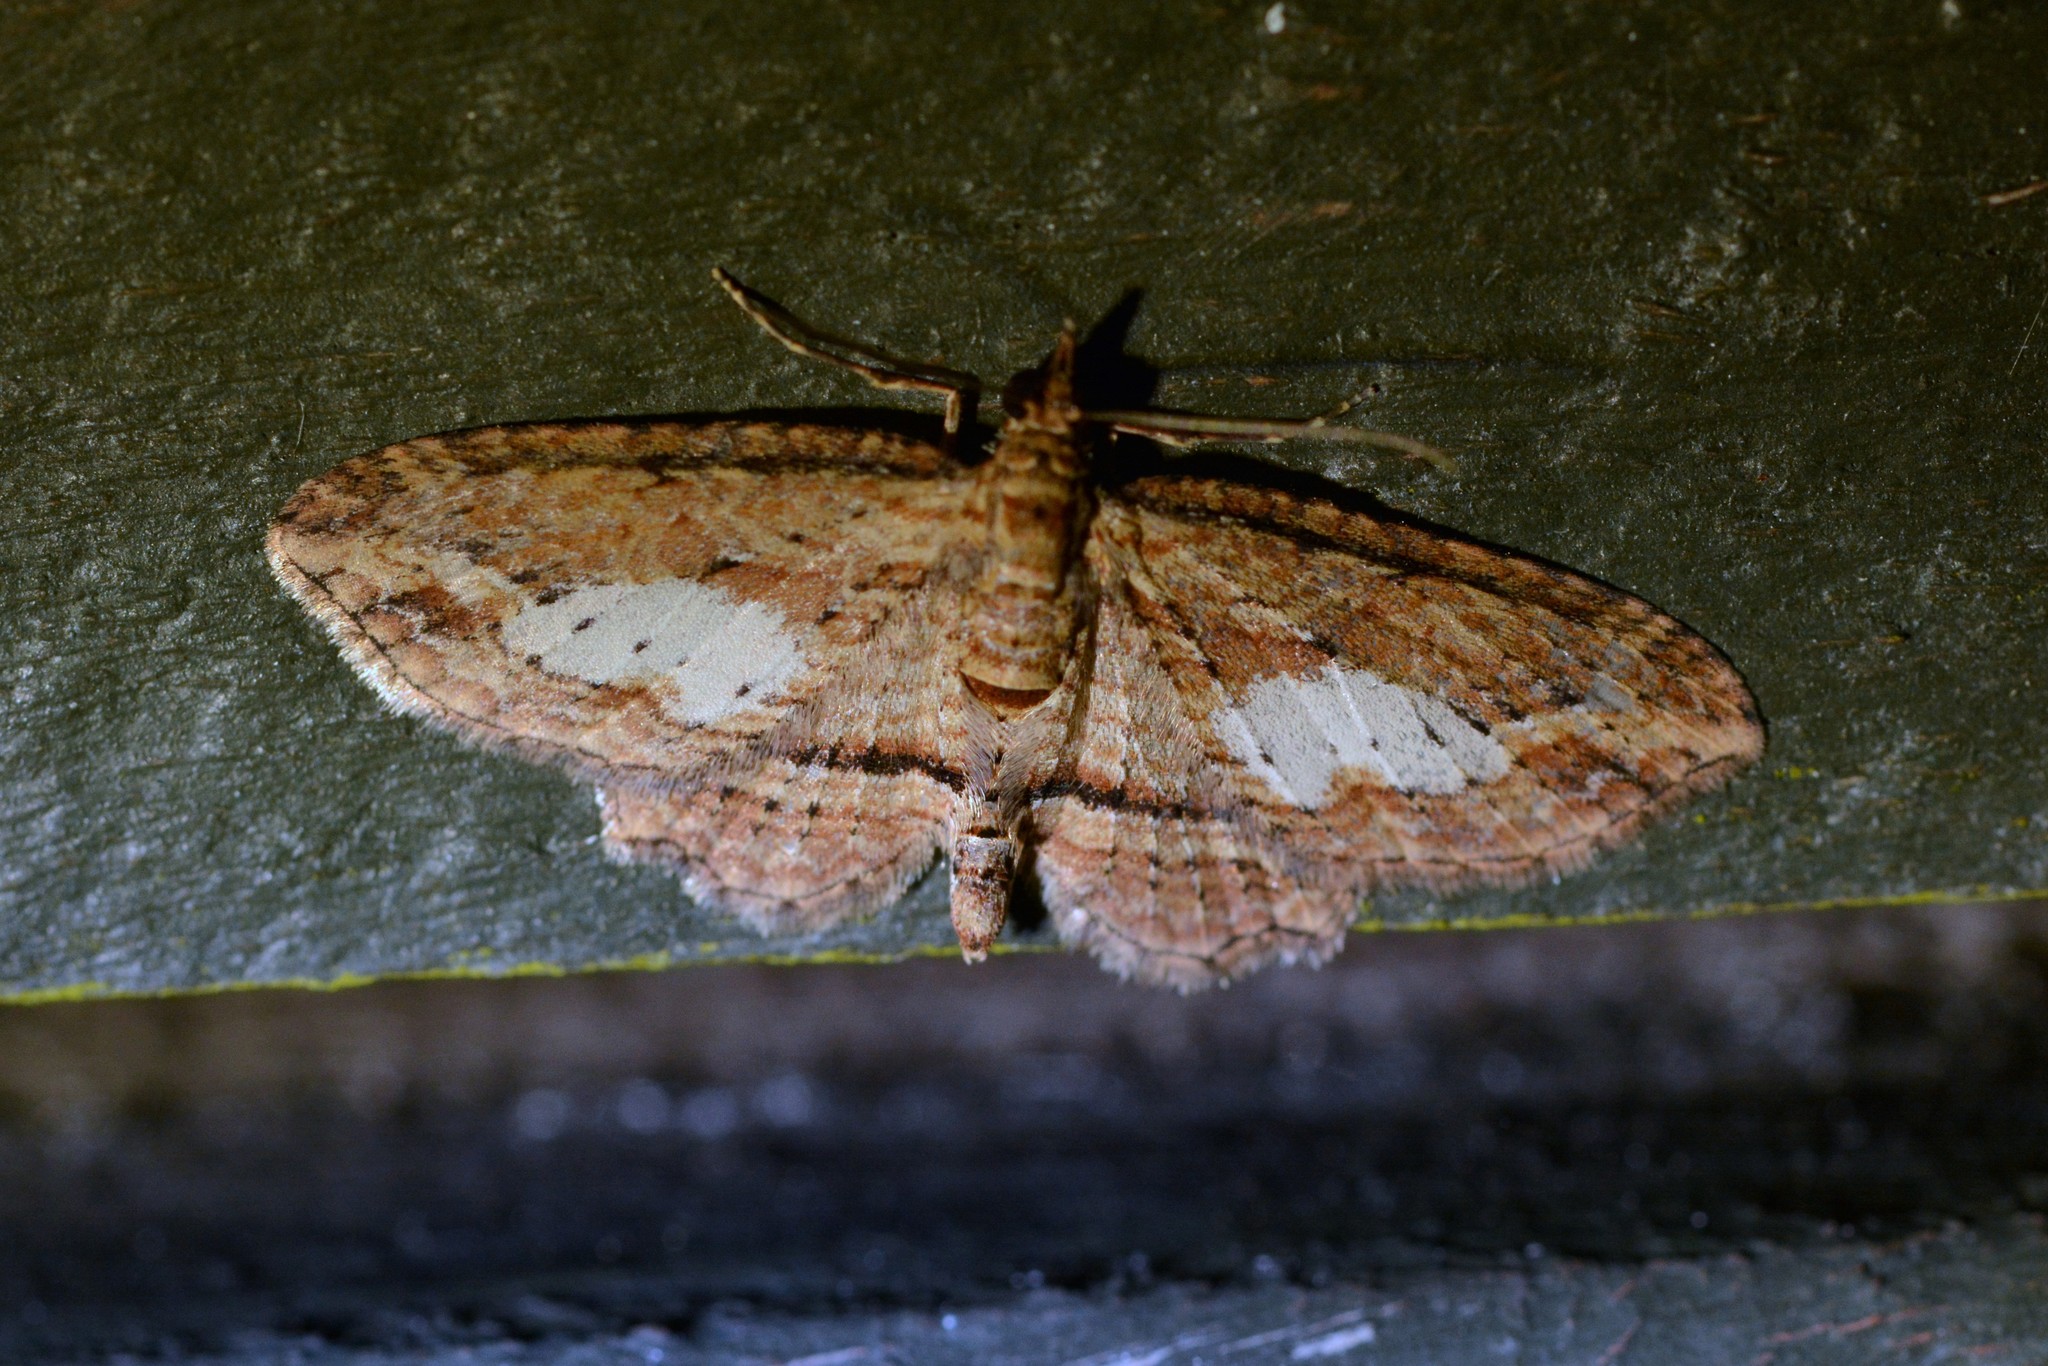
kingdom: Animalia
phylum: Arthropoda
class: Insecta
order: Lepidoptera
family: Geometridae
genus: Chloroclystis
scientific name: Chloroclystis filata
